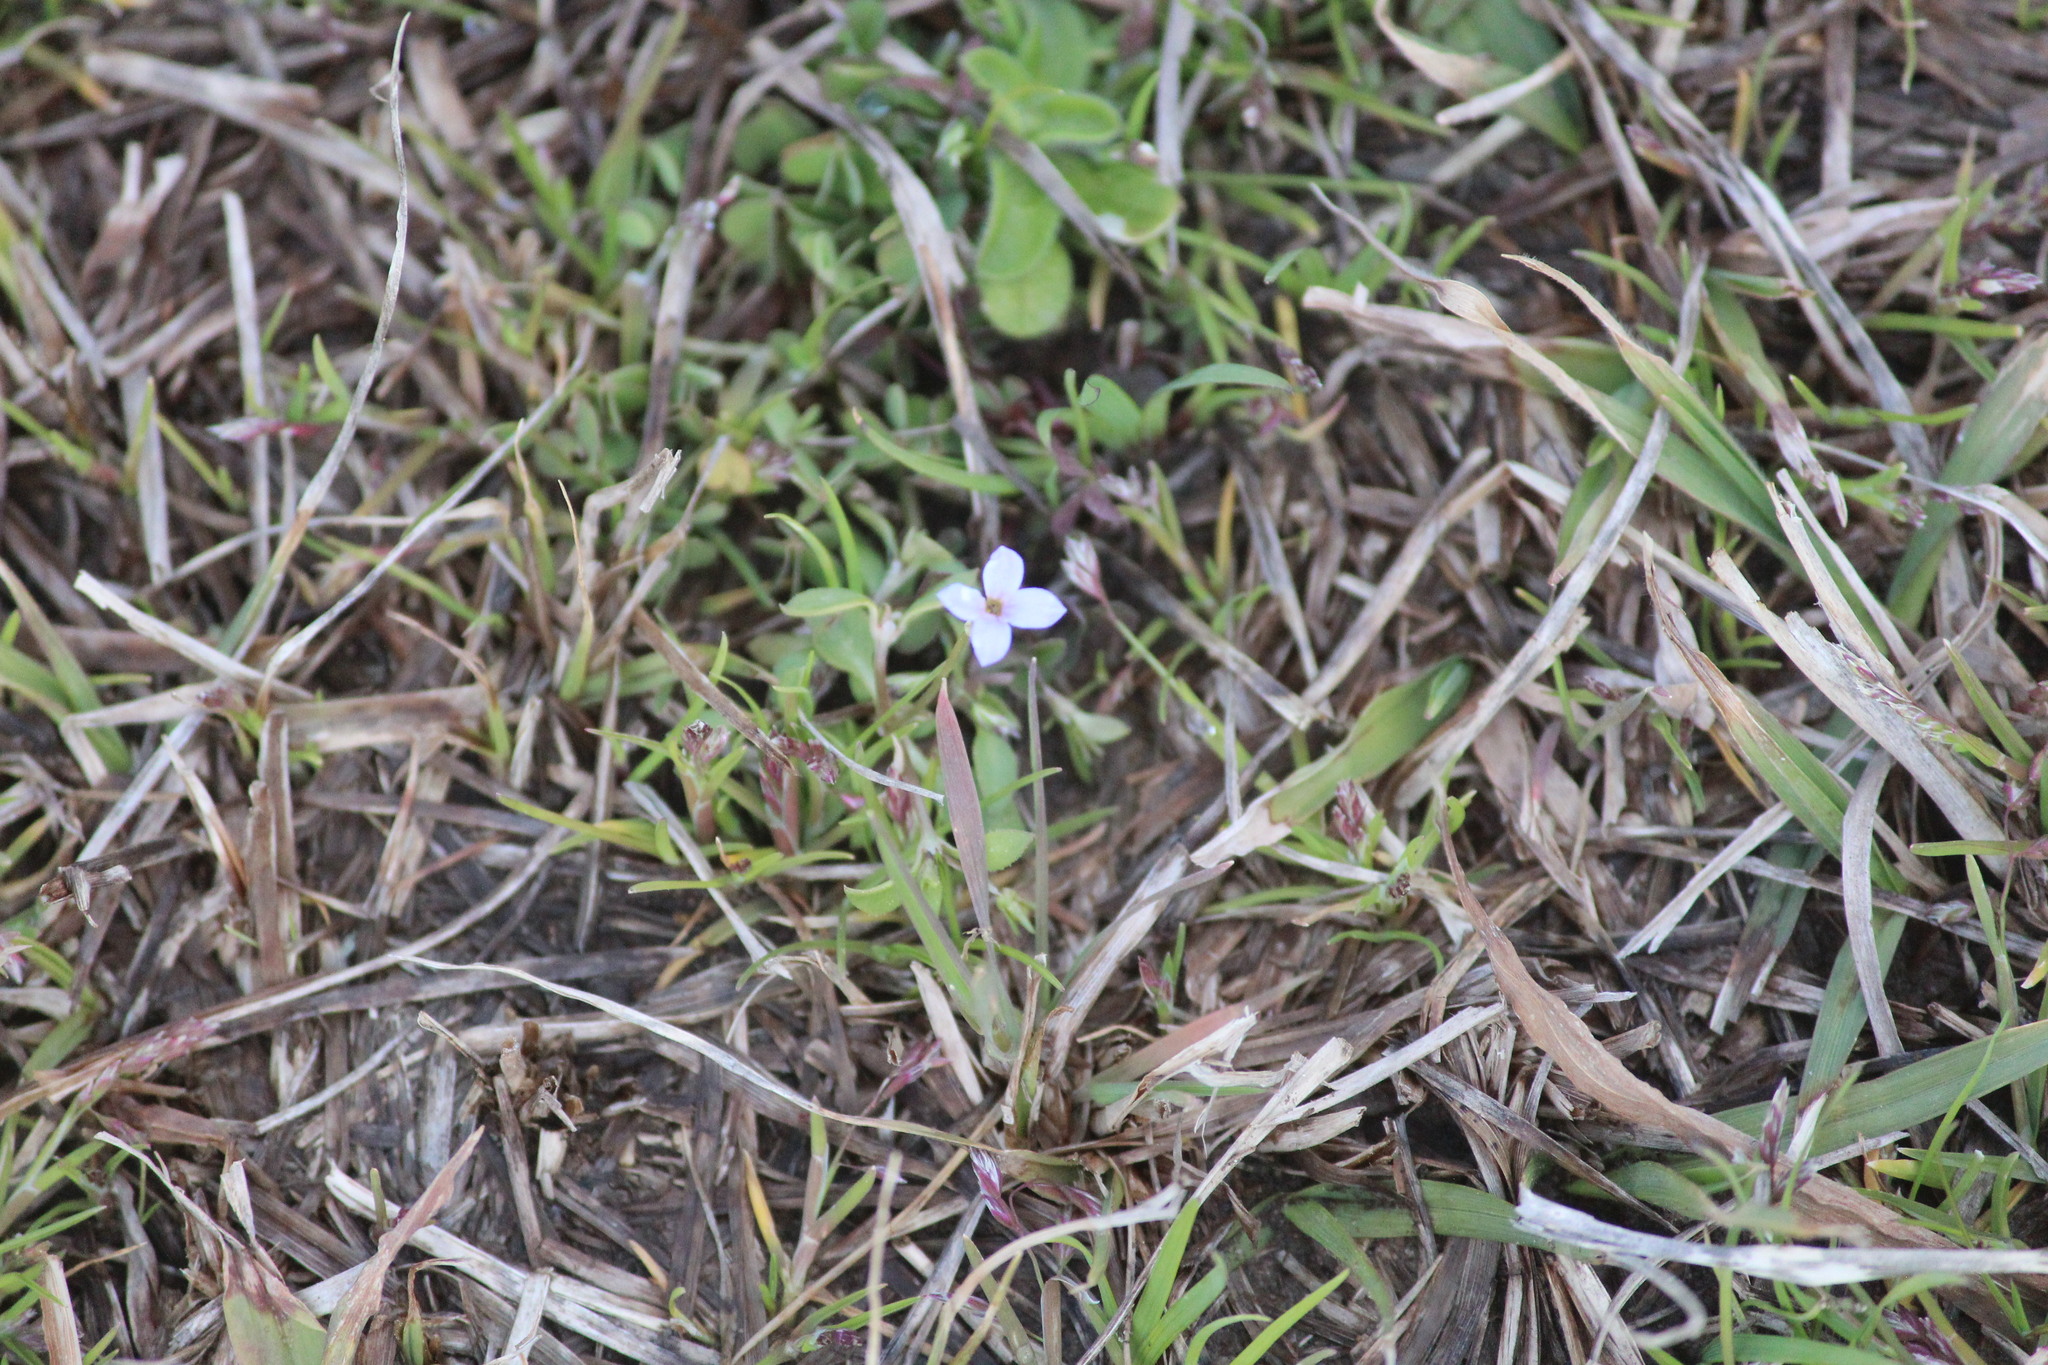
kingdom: Plantae
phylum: Tracheophyta
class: Magnoliopsida
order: Gentianales
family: Rubiaceae
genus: Houstonia
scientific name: Houstonia pusilla
